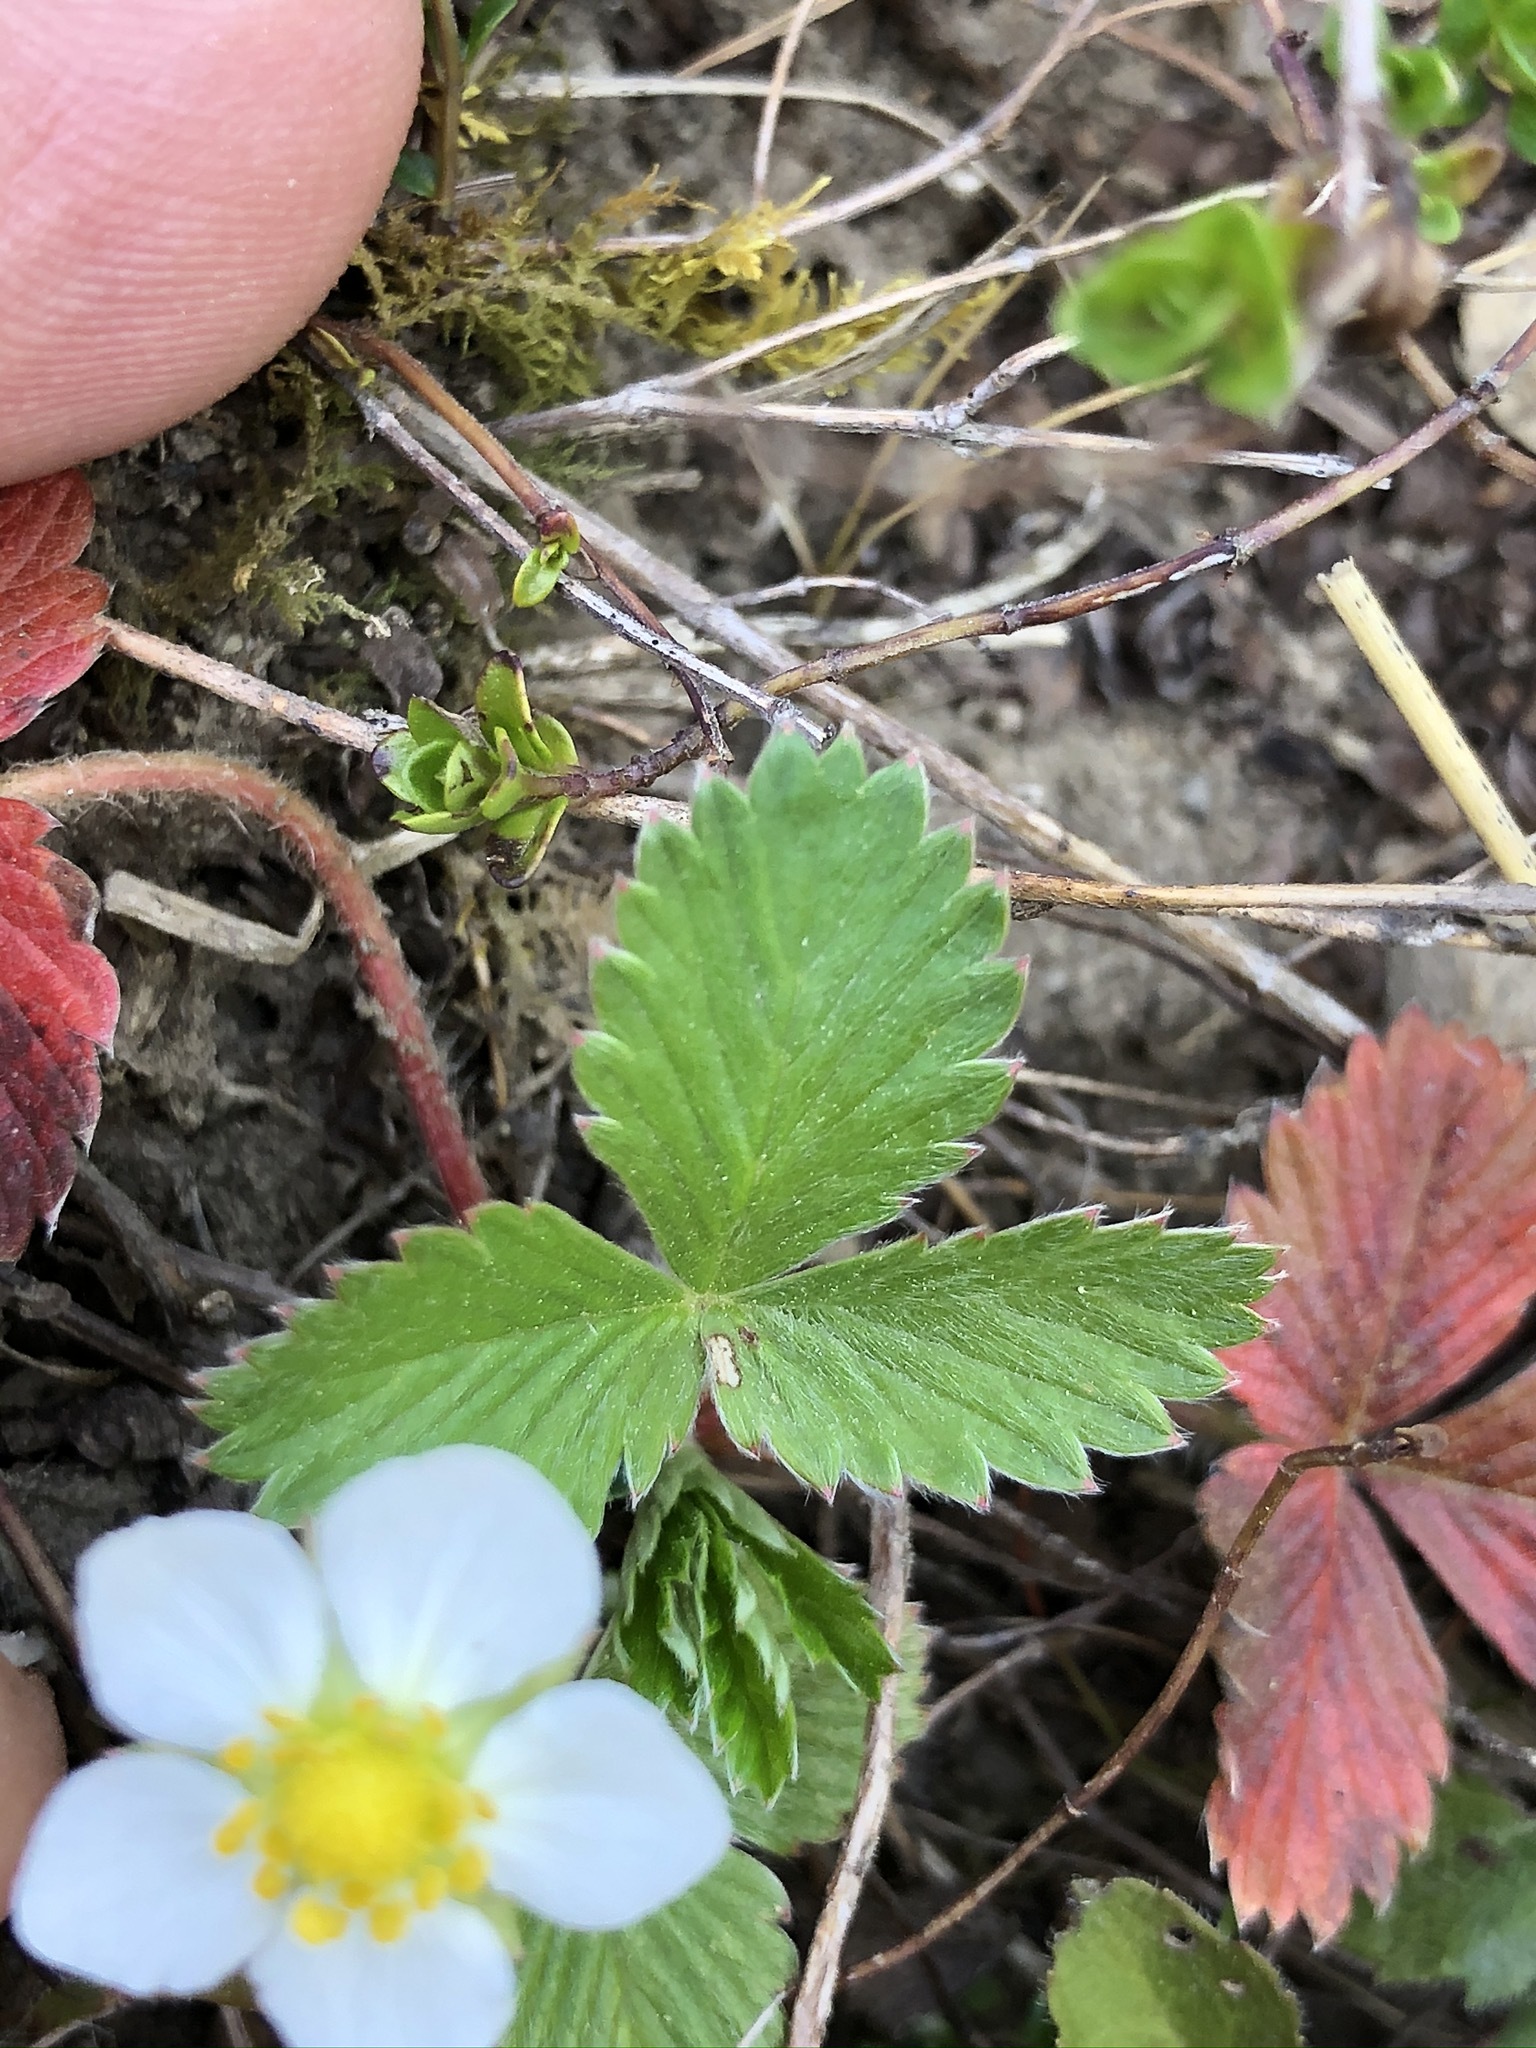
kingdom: Plantae
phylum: Tracheophyta
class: Magnoliopsida
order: Rosales
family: Rosaceae
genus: Fragaria
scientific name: Fragaria vesca
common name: Wild strawberry
